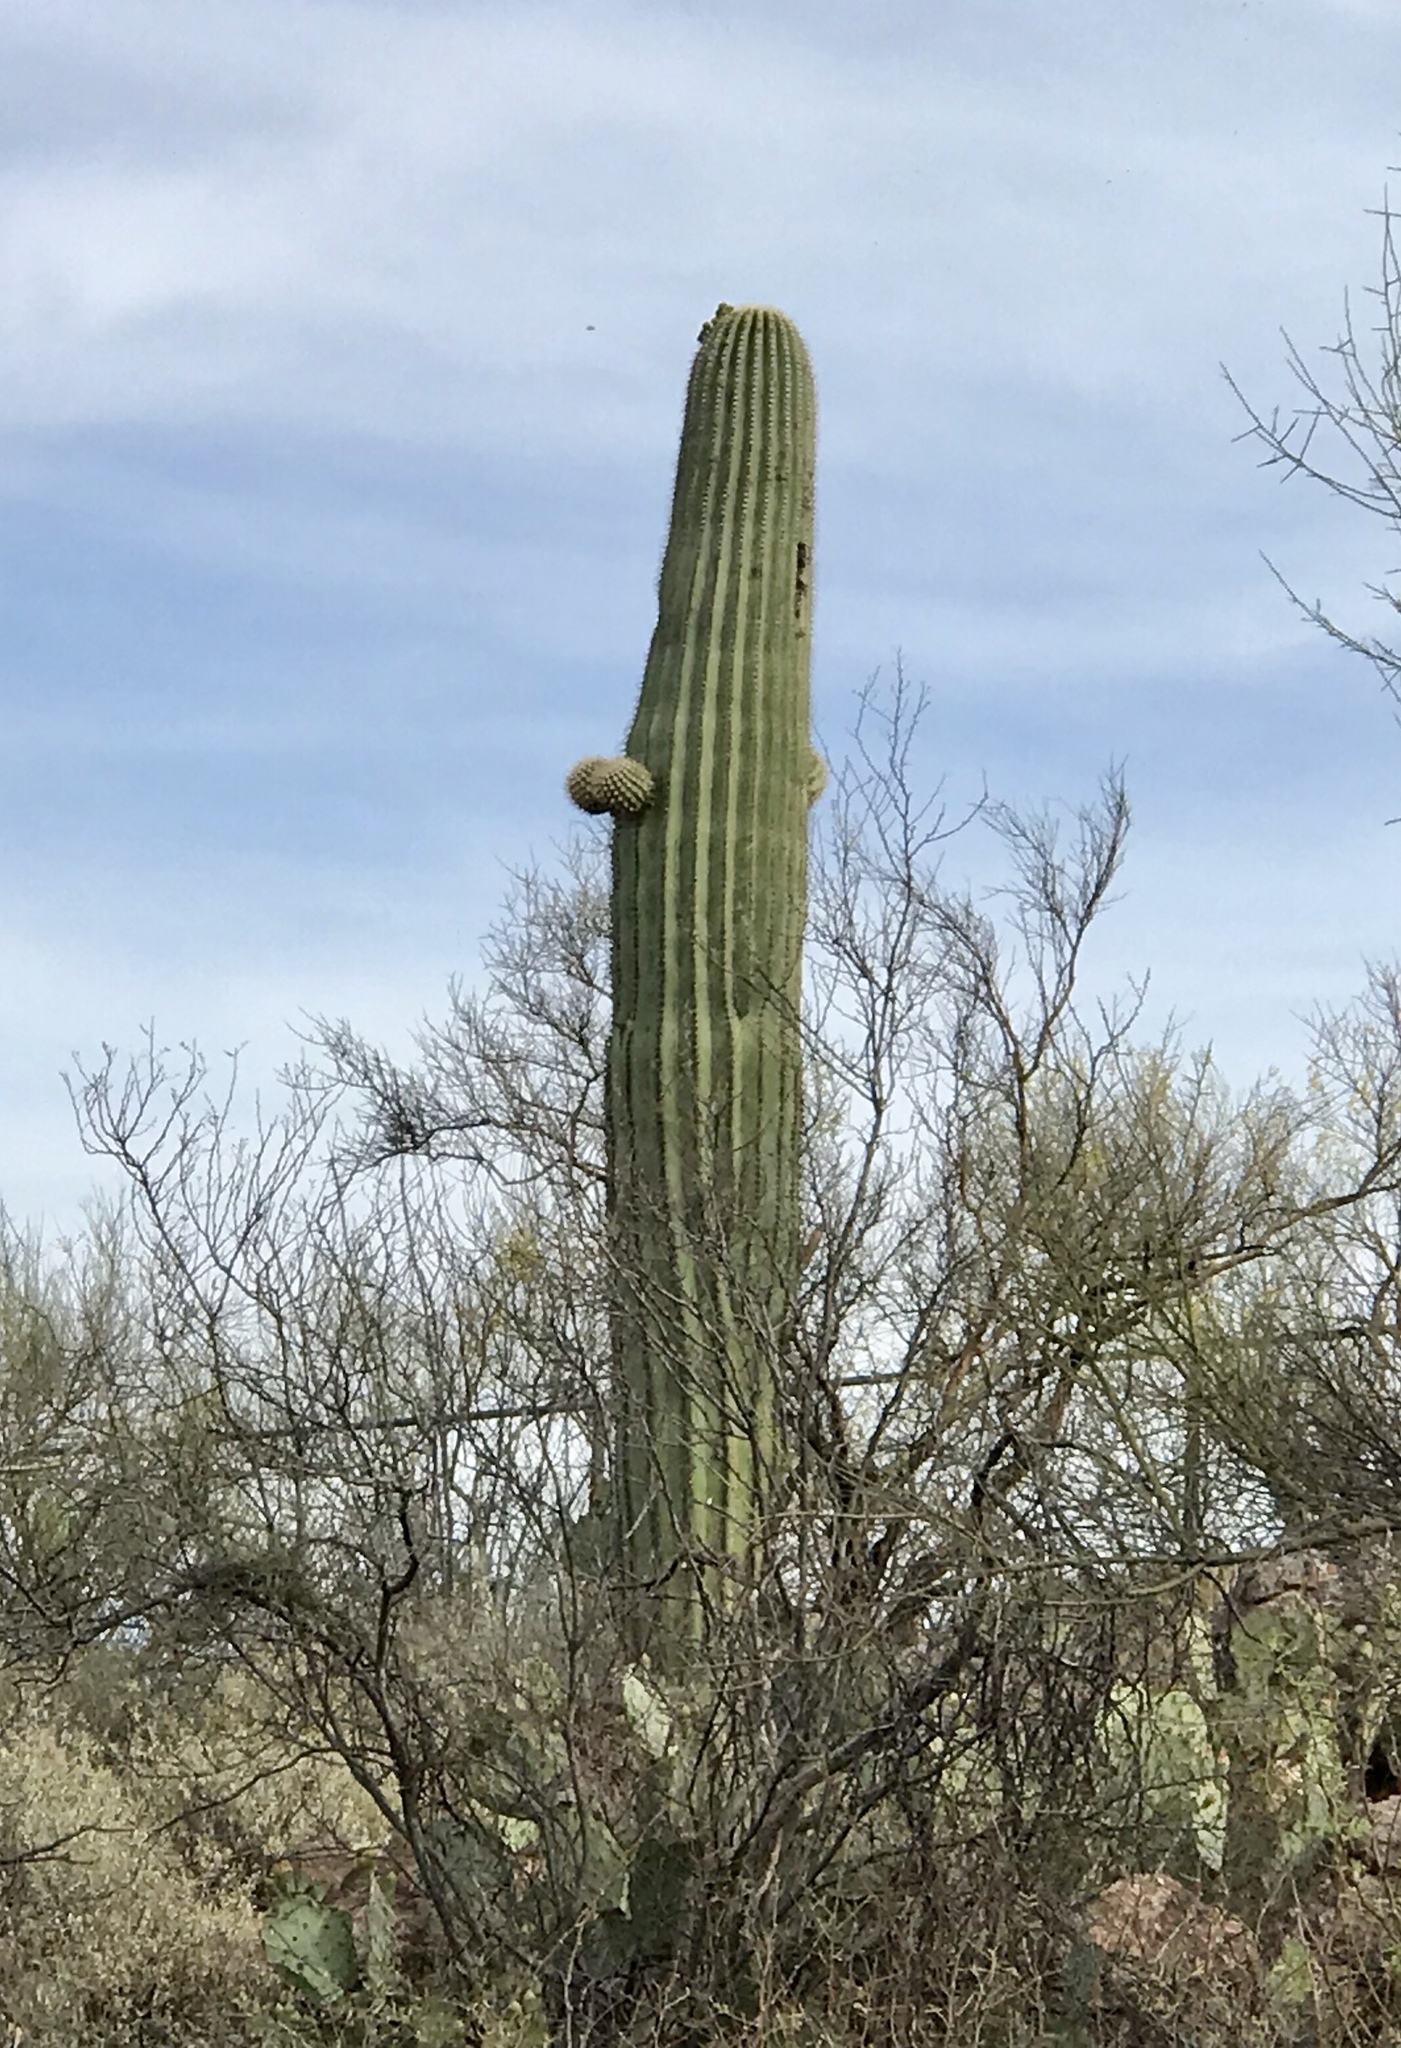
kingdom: Plantae
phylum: Tracheophyta
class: Magnoliopsida
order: Caryophyllales
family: Cactaceae
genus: Carnegiea
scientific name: Carnegiea gigantea
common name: Saguaro
